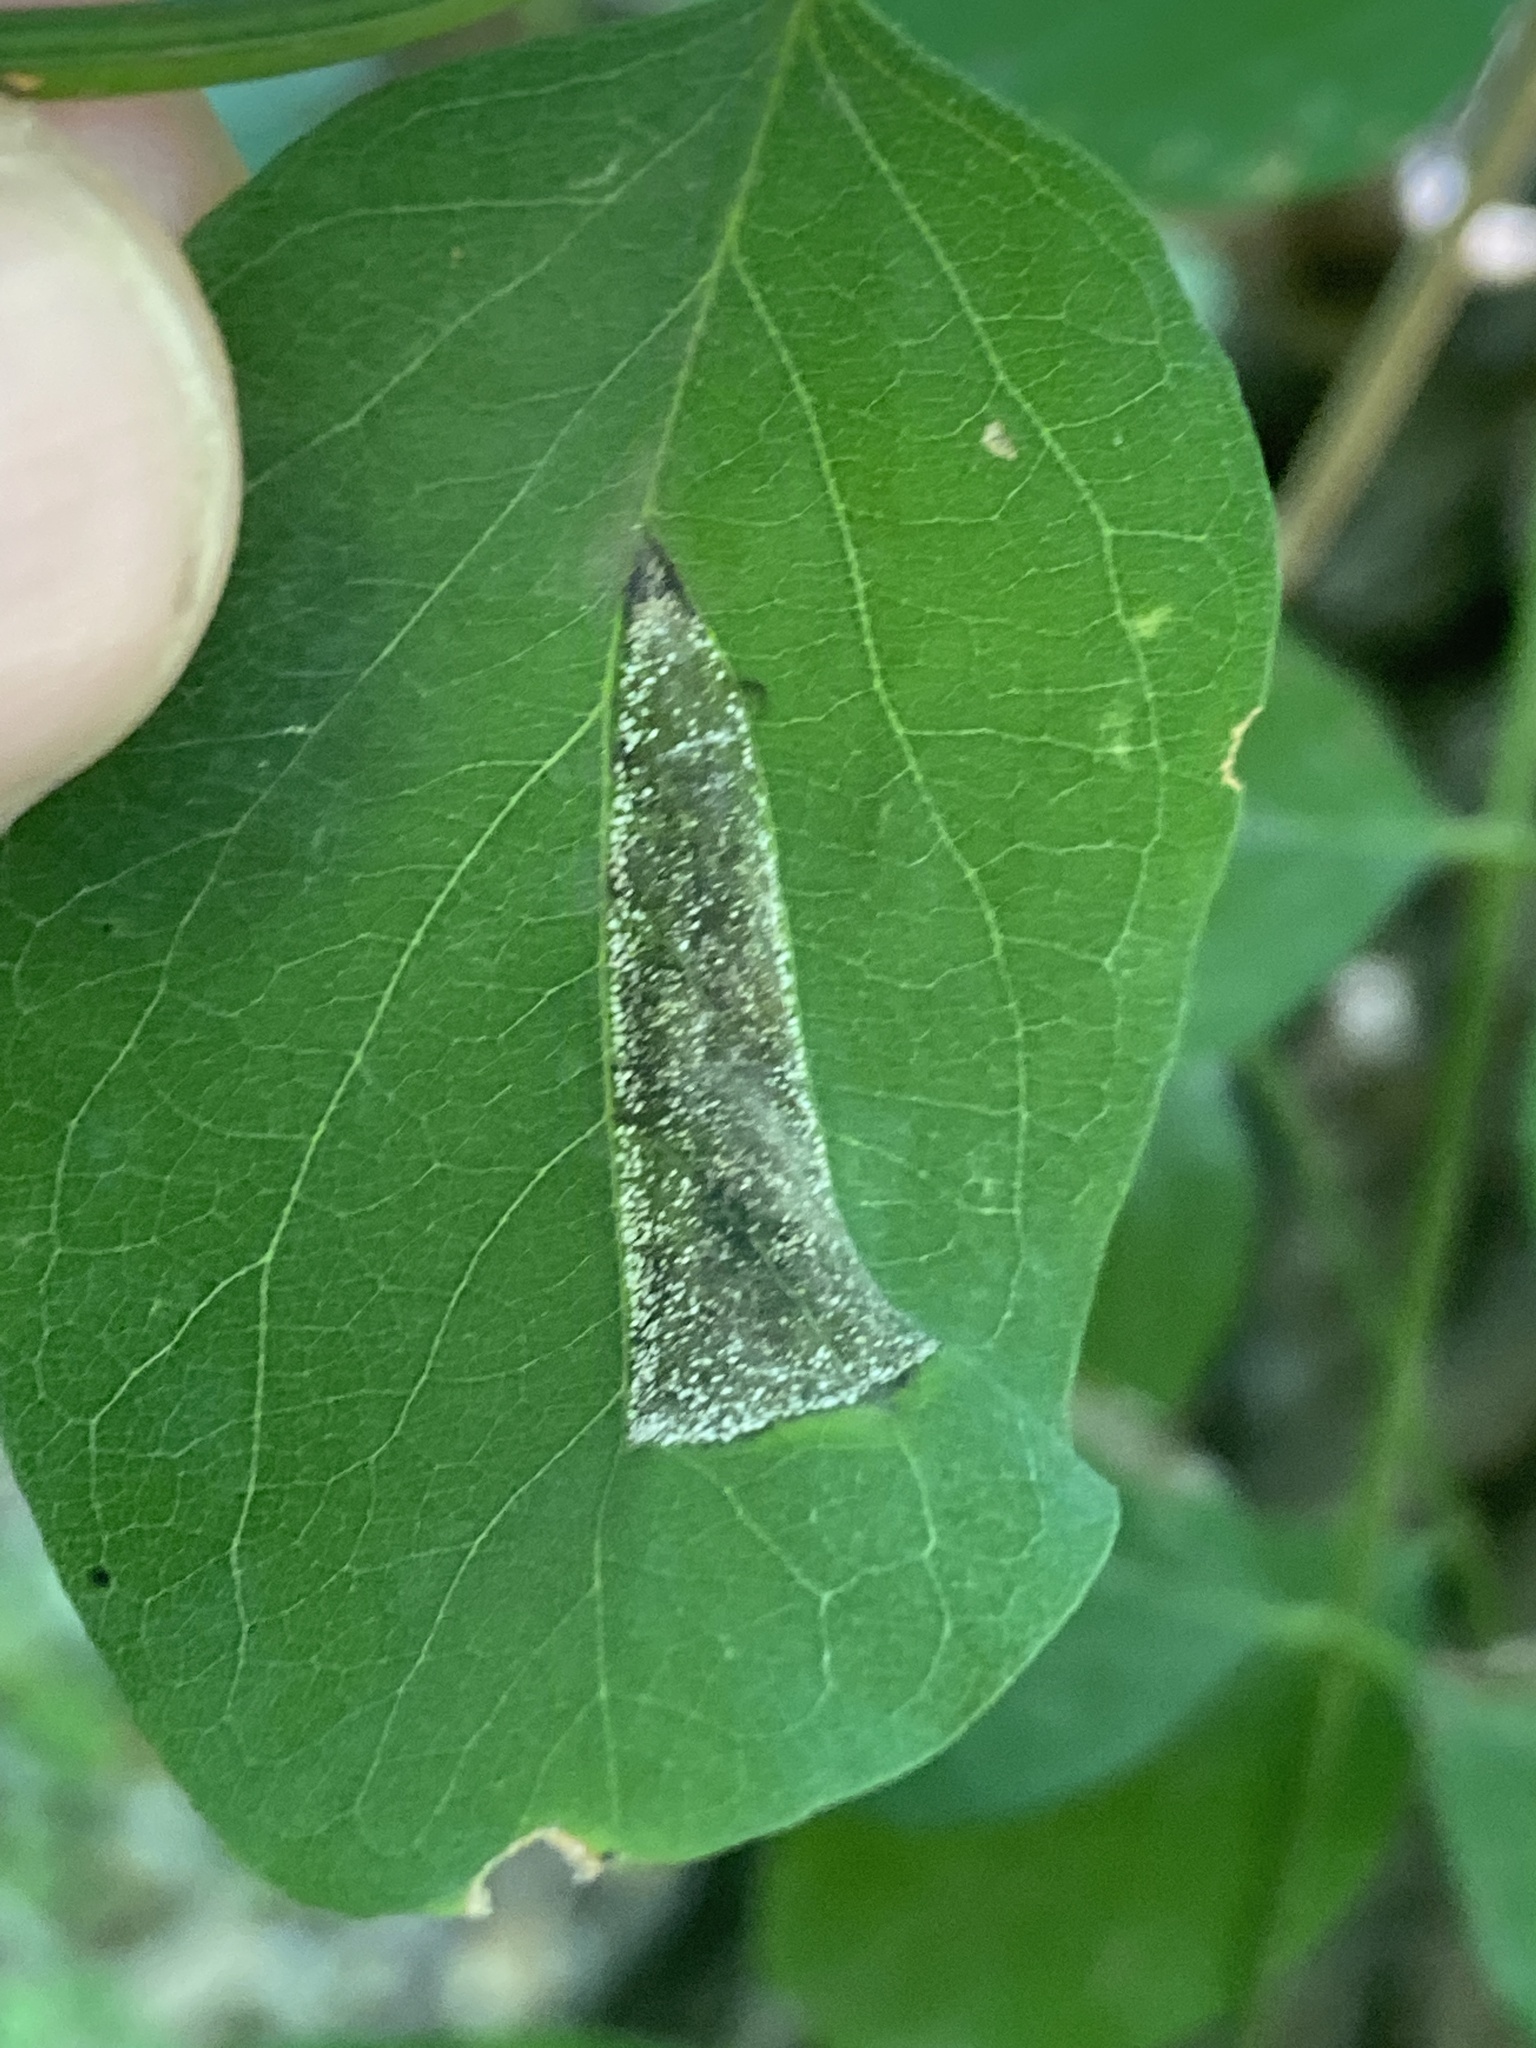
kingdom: Animalia
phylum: Arthropoda
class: Insecta
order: Lepidoptera
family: Gracillariidae
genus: Macrosaccus
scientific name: Macrosaccus robiniella
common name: Leaf blotch miner moth
